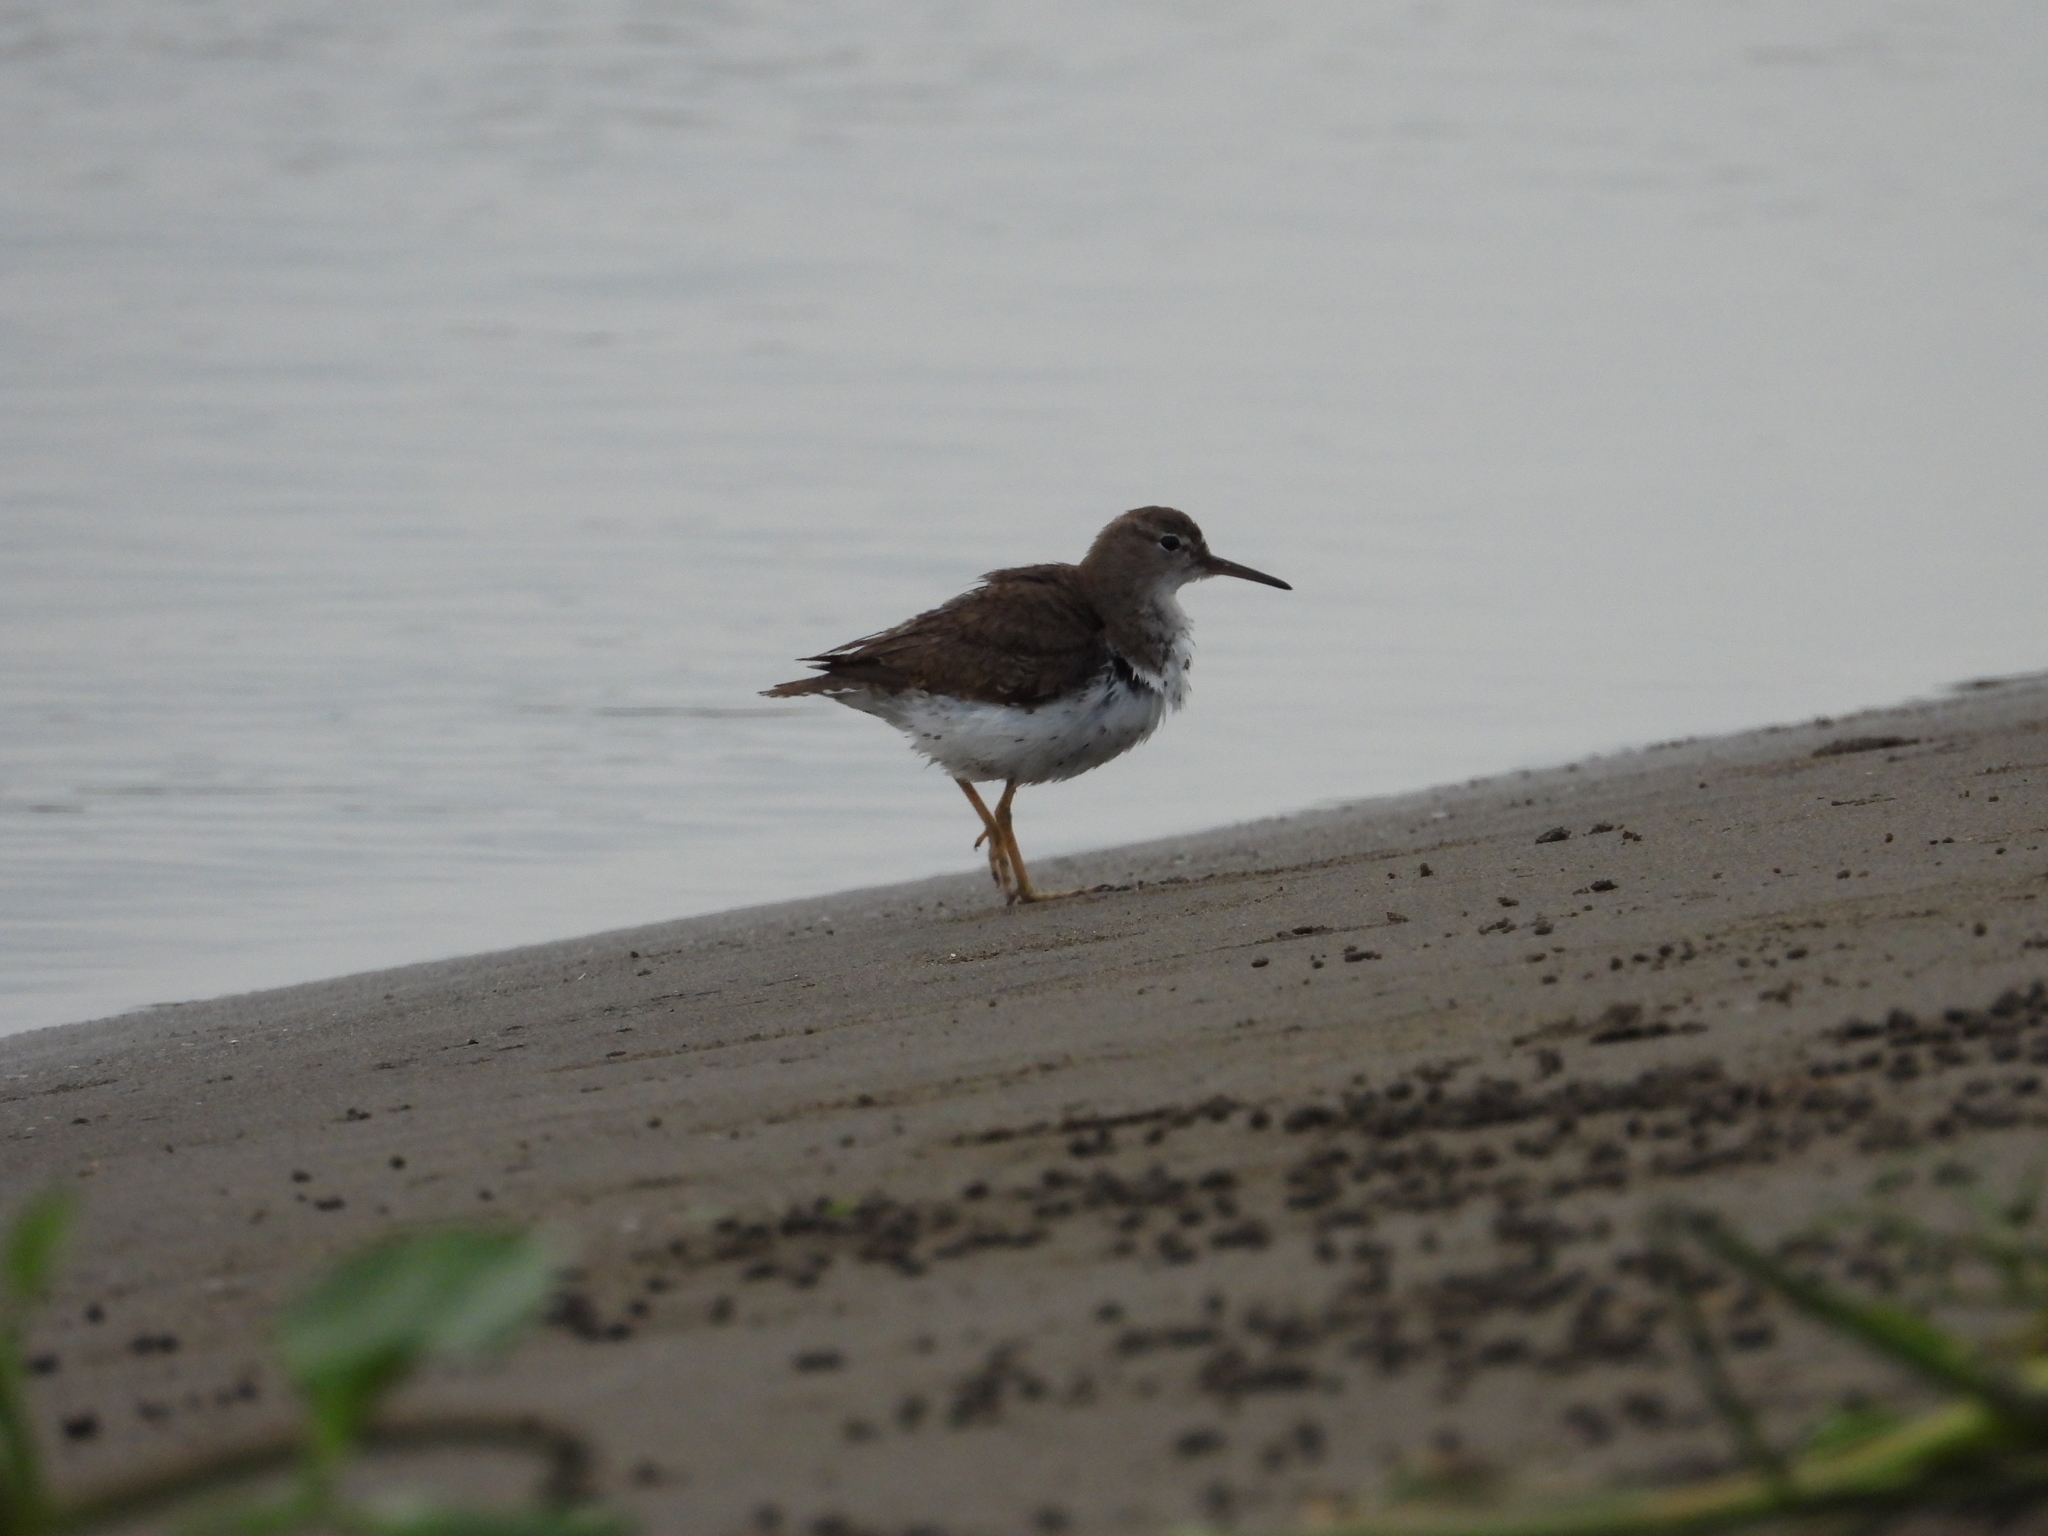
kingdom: Animalia
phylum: Chordata
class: Aves
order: Charadriiformes
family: Scolopacidae
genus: Actitis
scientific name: Actitis macularius
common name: Spotted sandpiper
